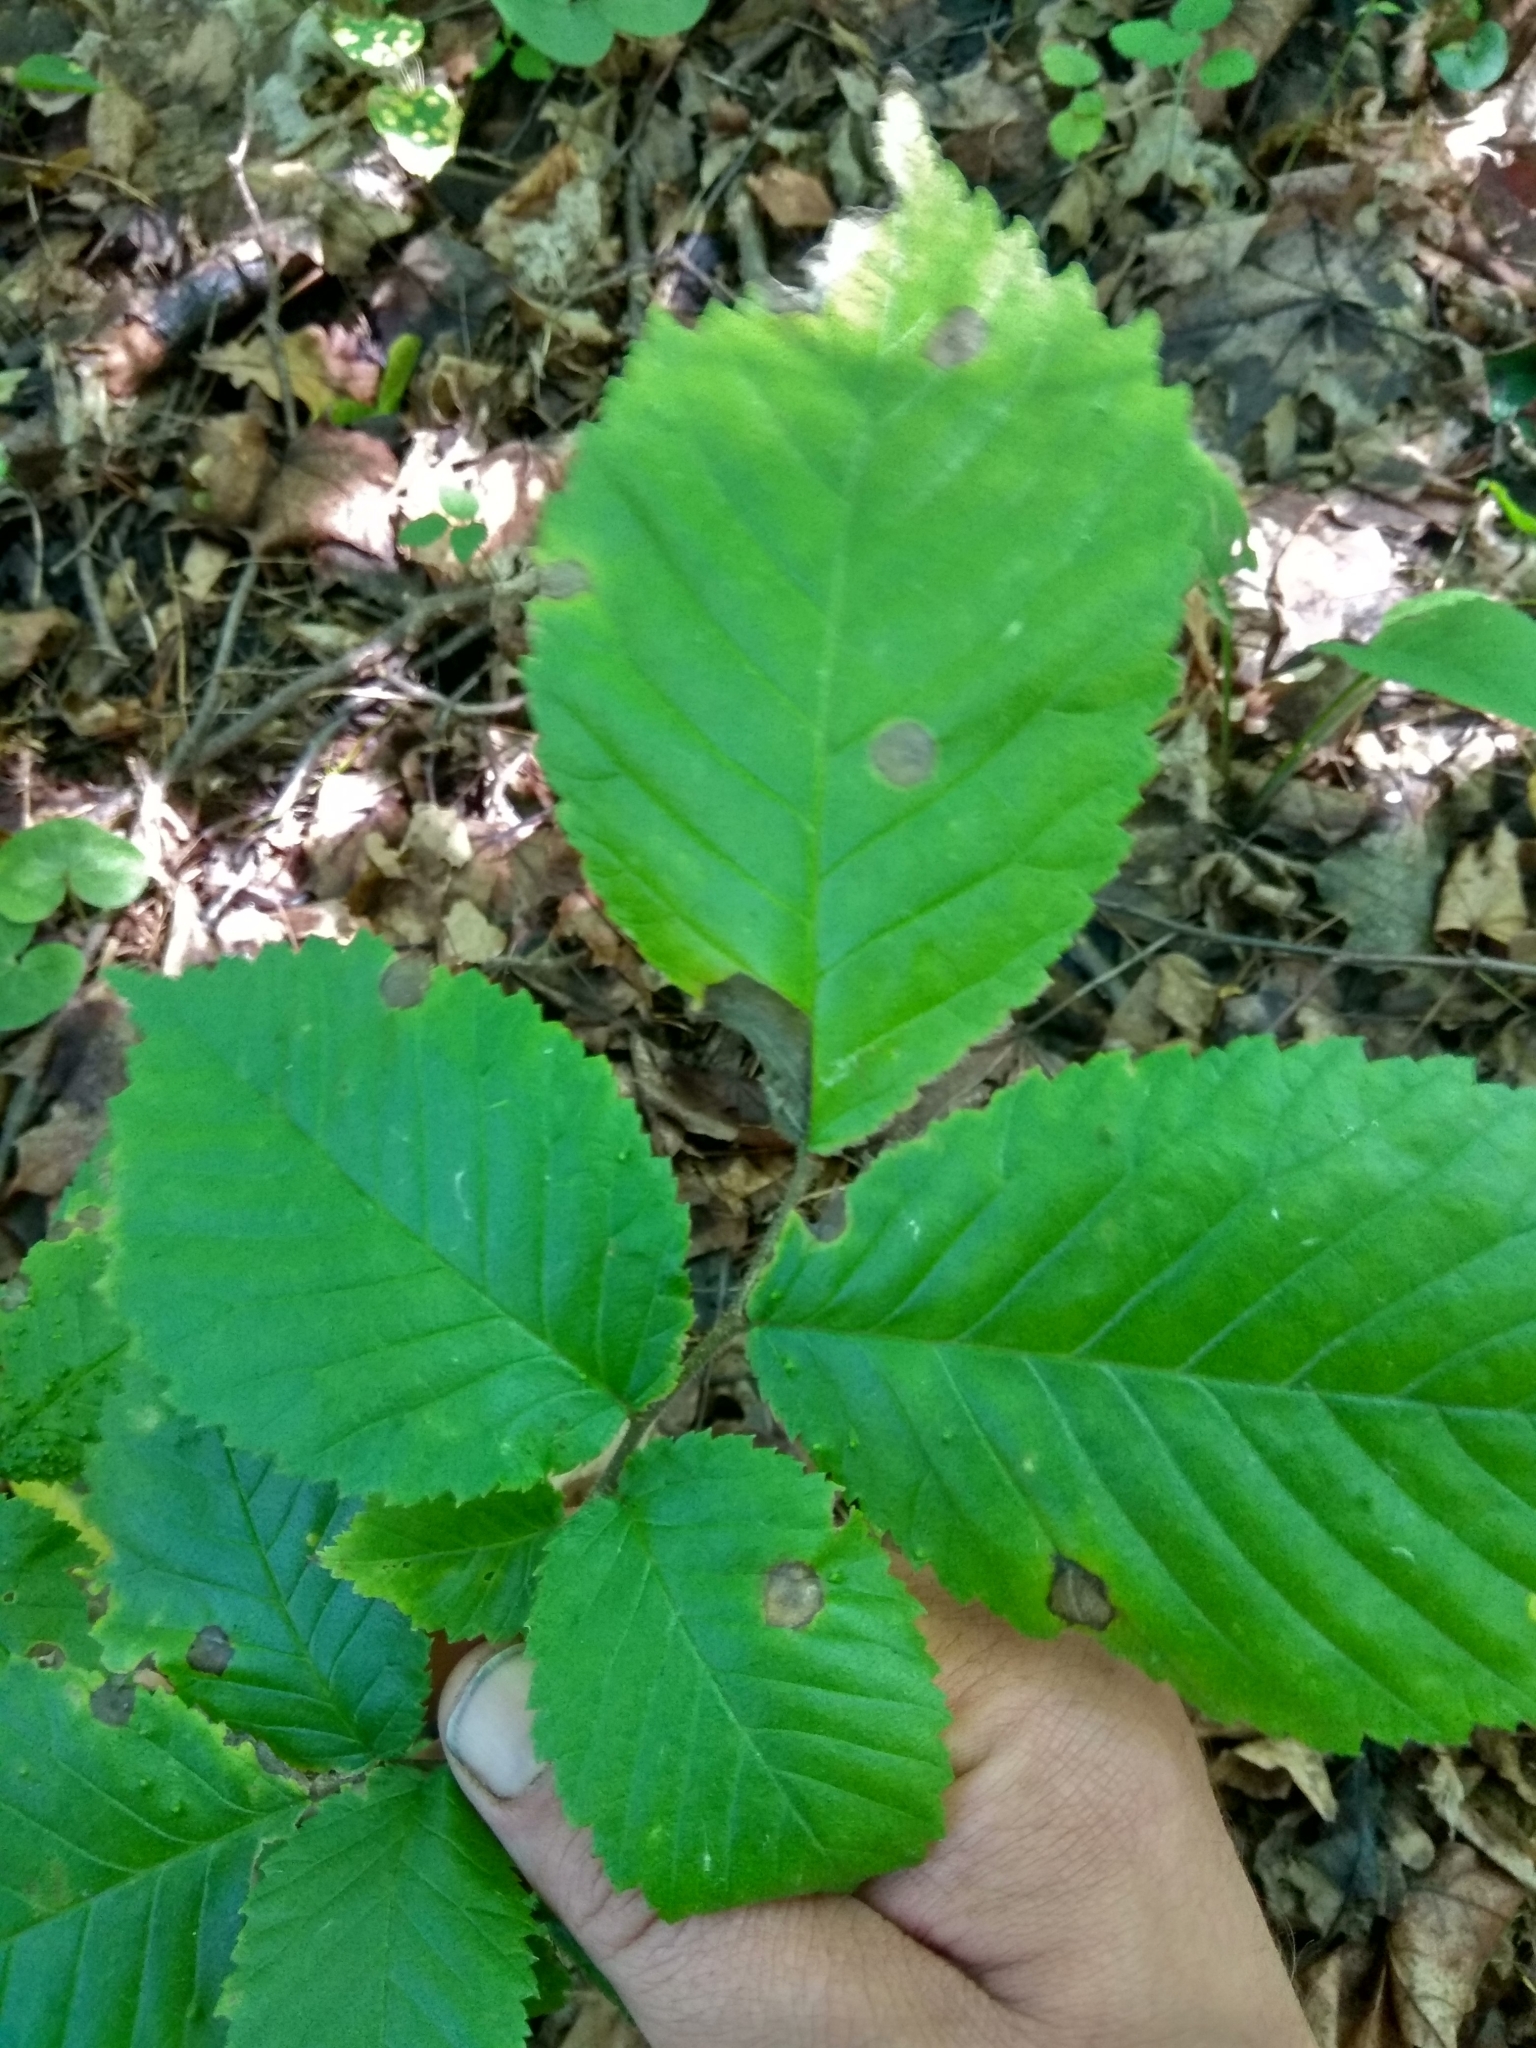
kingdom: Plantae
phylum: Tracheophyta
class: Magnoliopsida
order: Rosales
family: Ulmaceae
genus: Ulmus
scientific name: Ulmus glabra
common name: Wych elm
